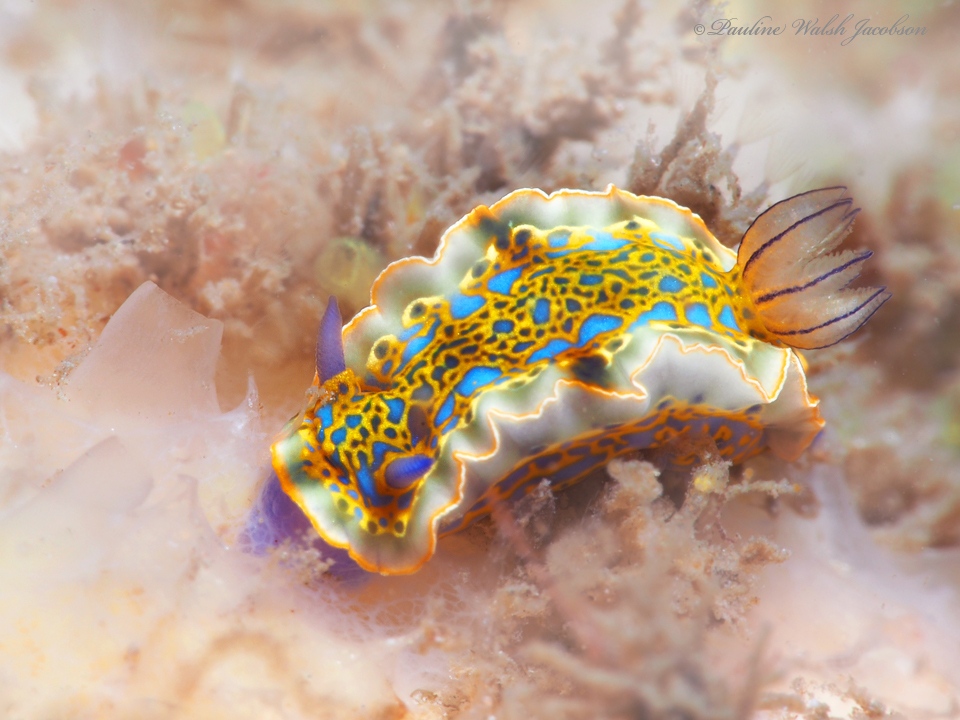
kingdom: Animalia
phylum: Mollusca
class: Gastropoda
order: Nudibranchia
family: Chromodorididae
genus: Felimare
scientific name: Felimare acriba
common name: Goldcrowned sea goddess
